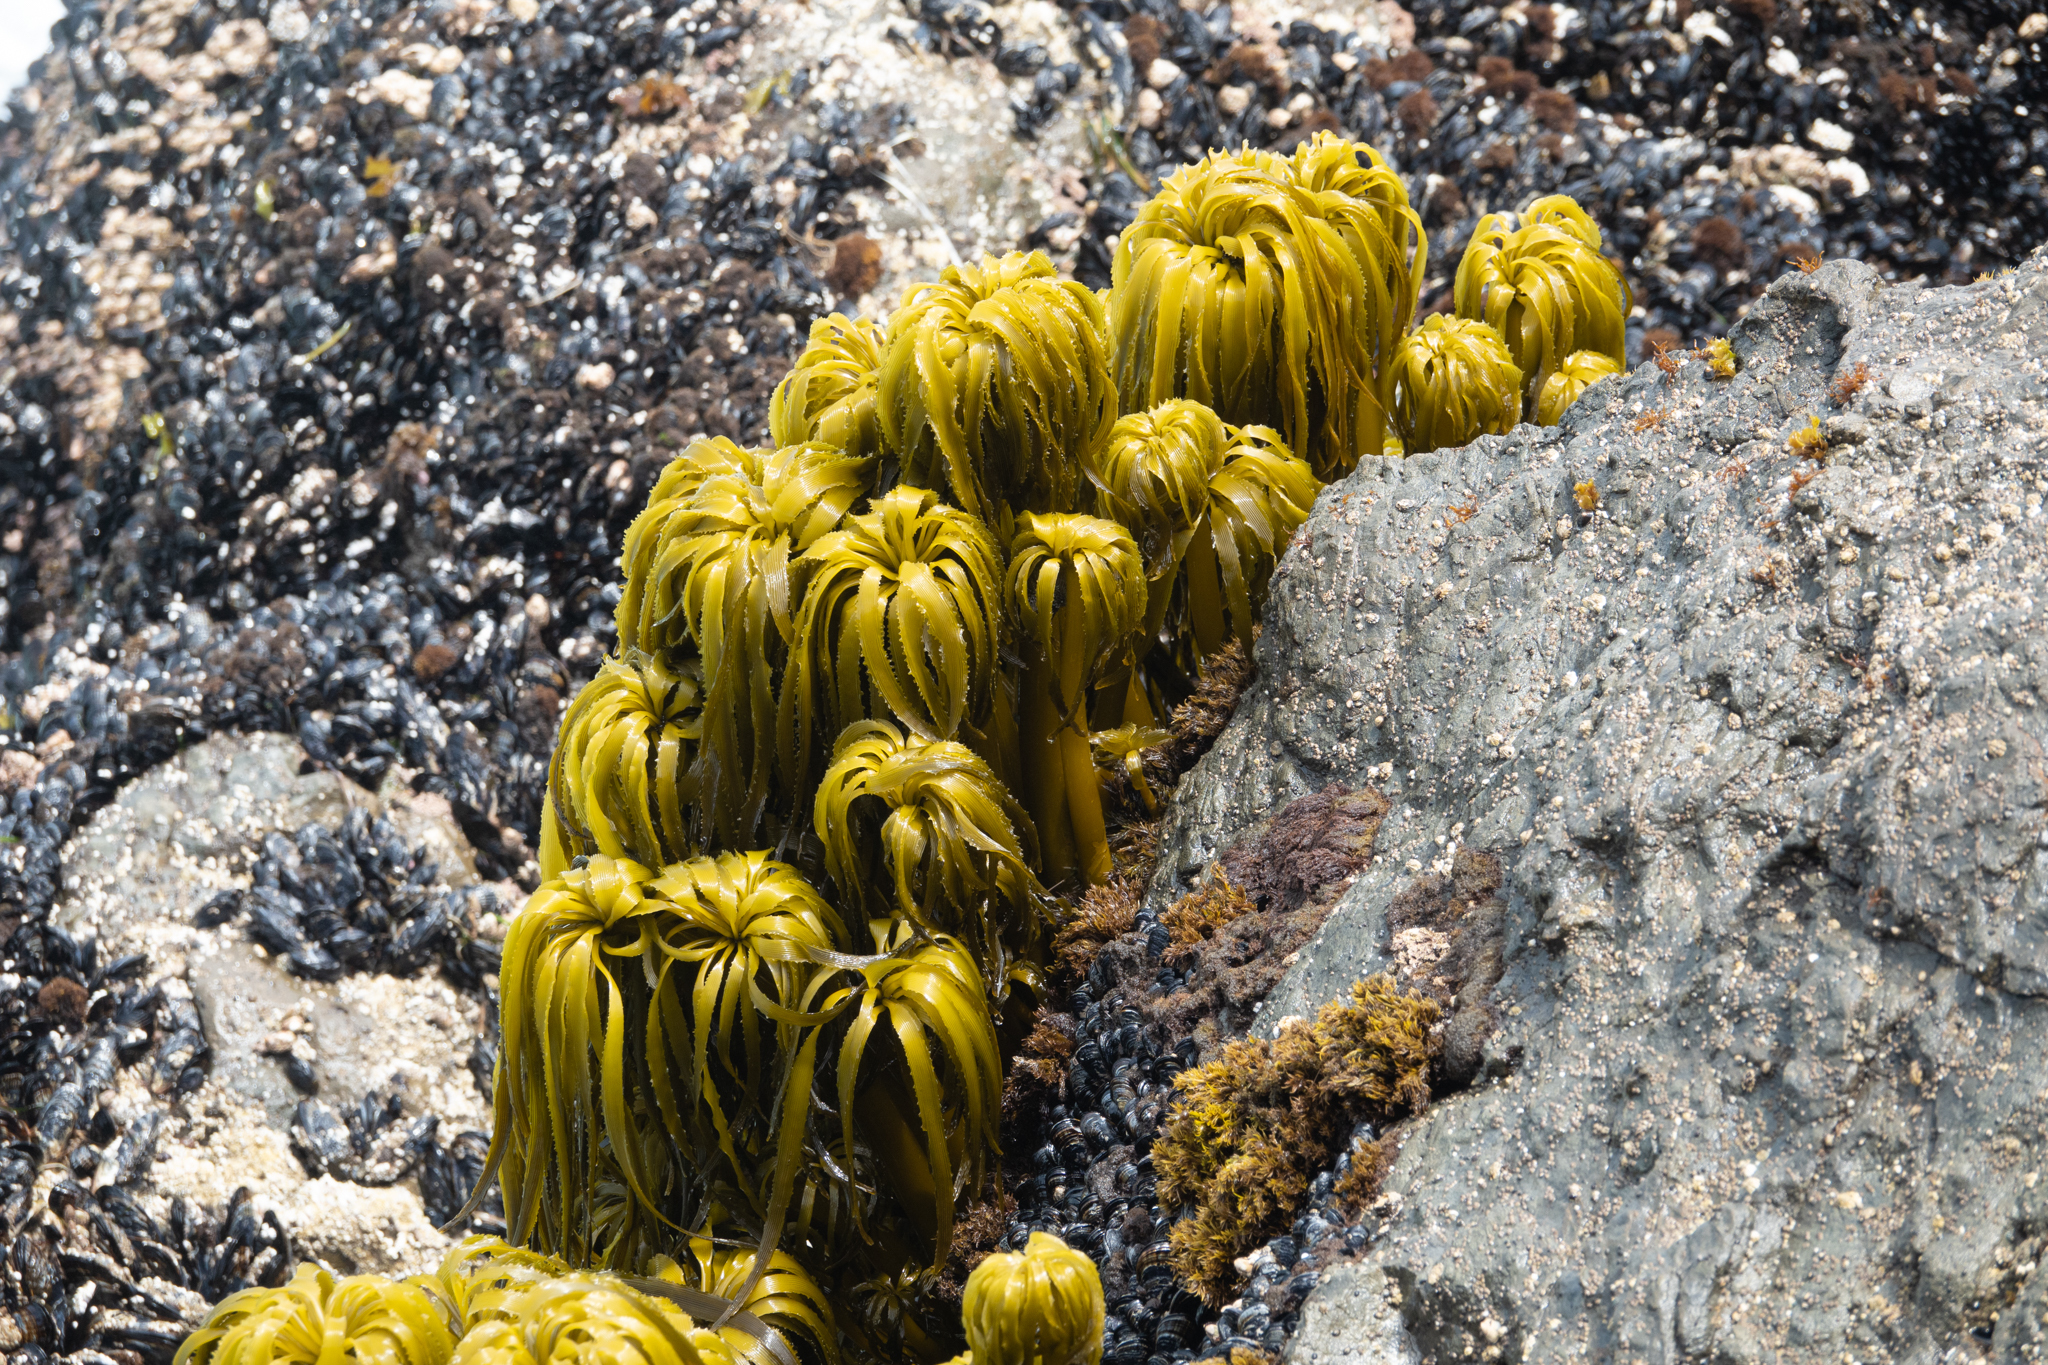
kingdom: Chromista
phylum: Ochrophyta
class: Phaeophyceae
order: Laminariales
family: Laminariaceae
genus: Postelsia
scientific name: Postelsia palmiformis
